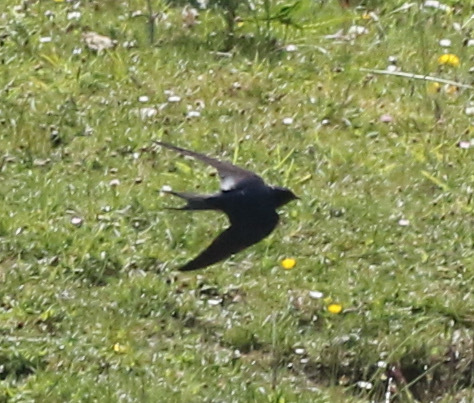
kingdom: Animalia
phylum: Chordata
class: Aves
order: Passeriformes
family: Hirundinidae
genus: Hirundo
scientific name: Hirundo rustica
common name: Barn swallow
